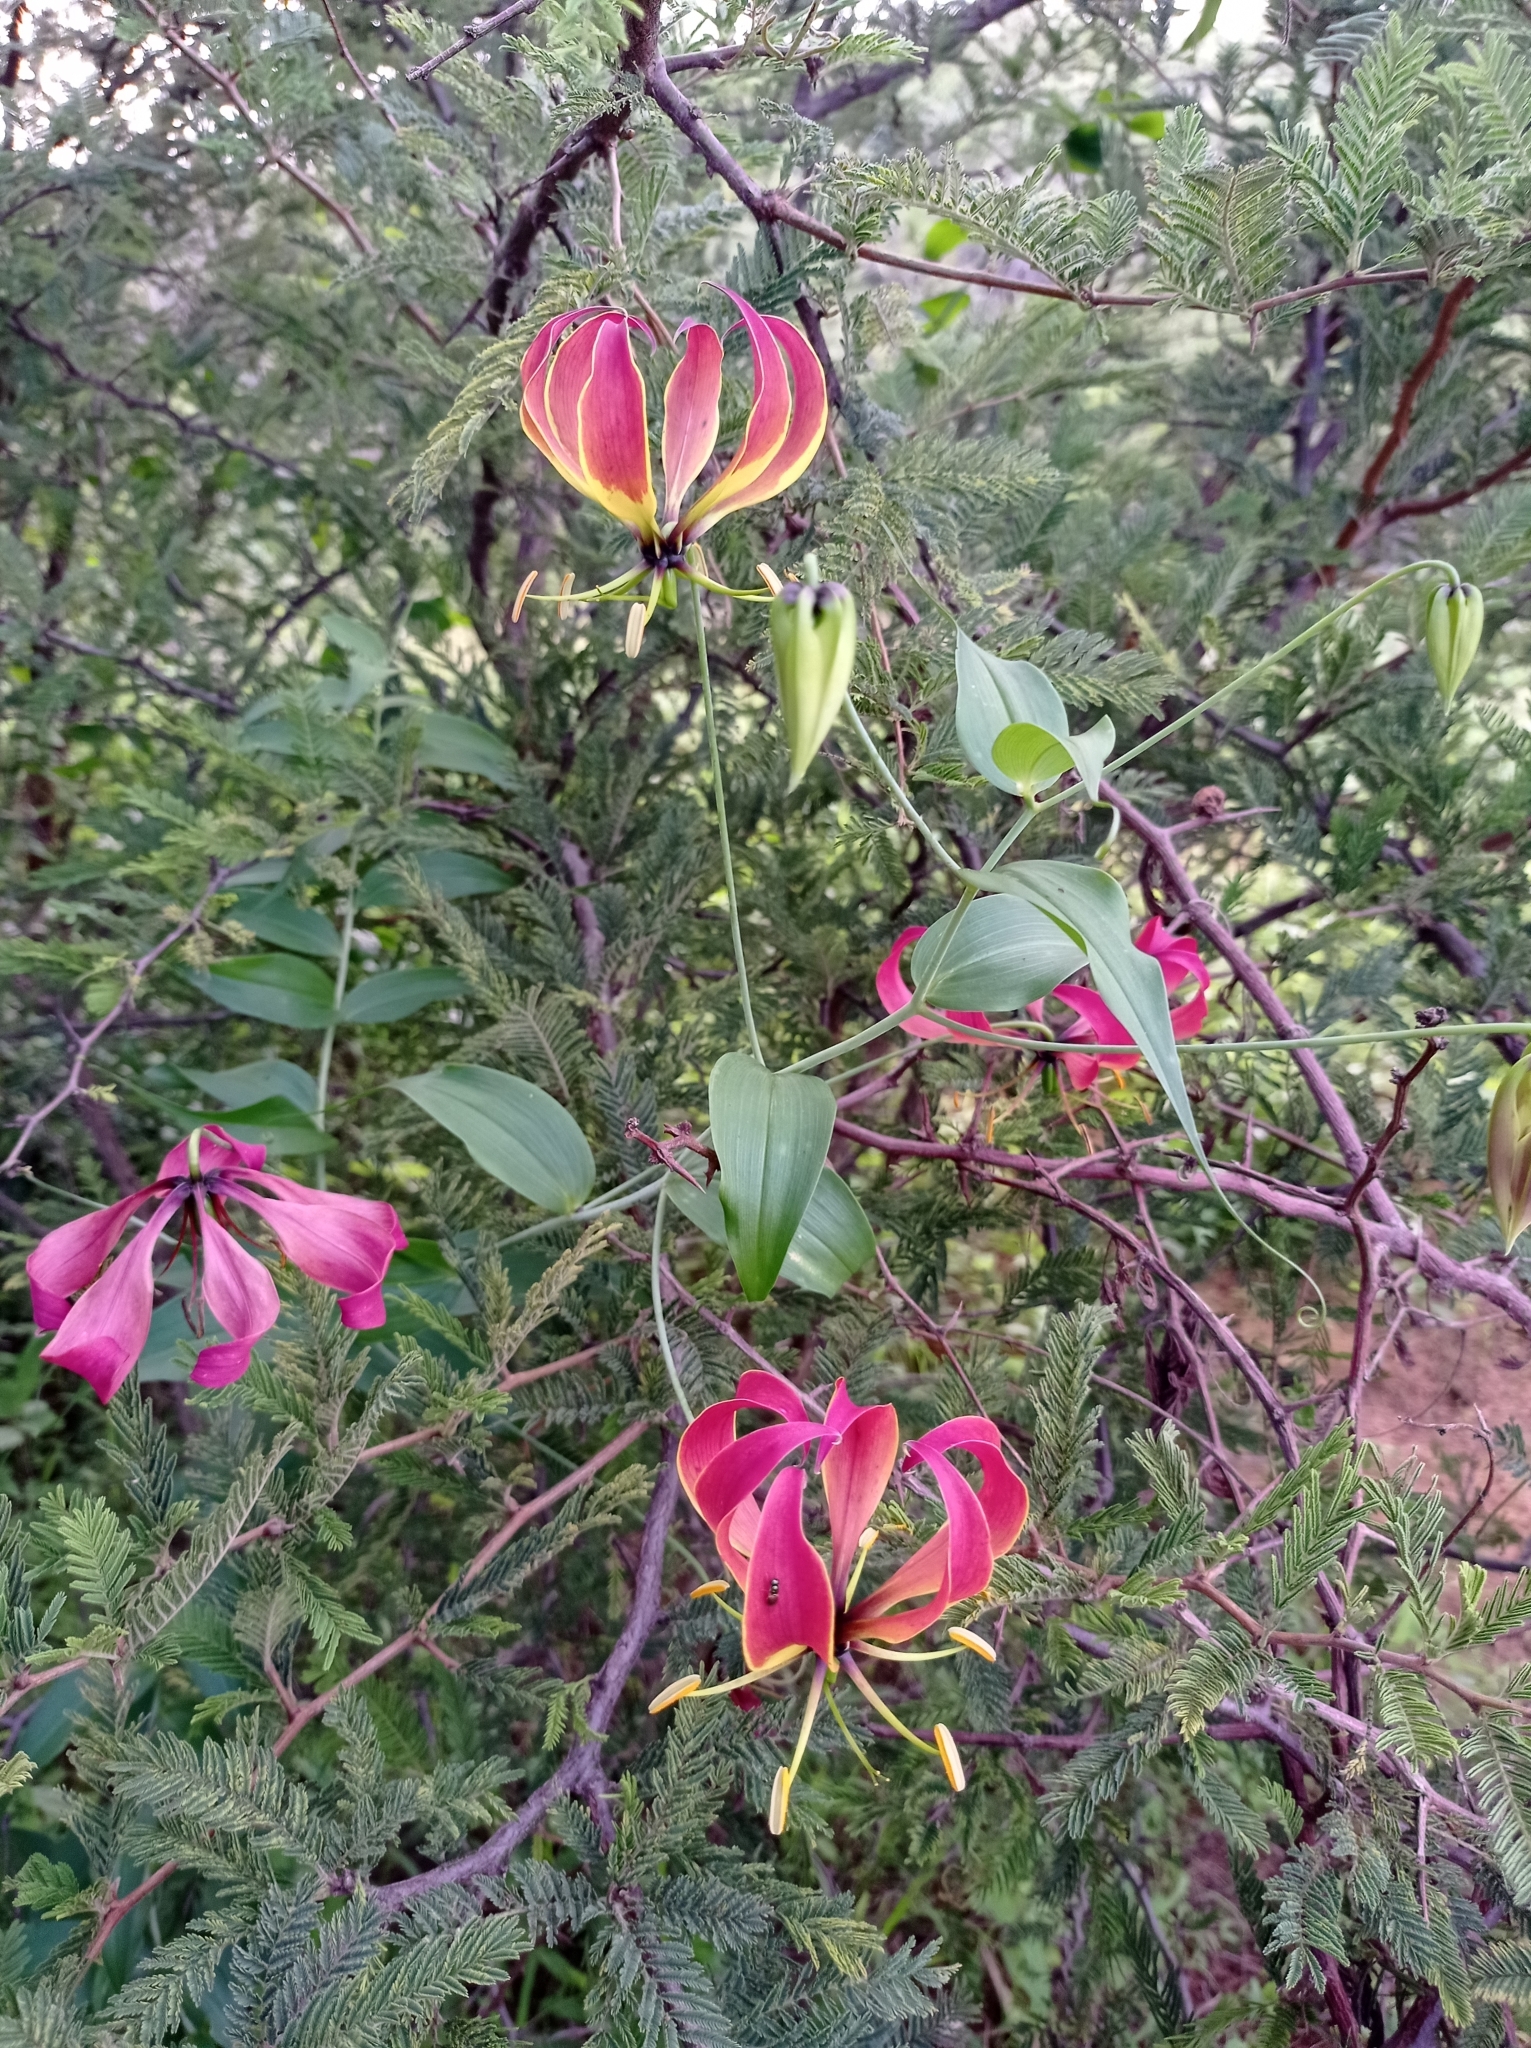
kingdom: Plantae
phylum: Tracheophyta
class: Liliopsida
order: Liliales
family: Colchicaceae
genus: Gloriosa
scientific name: Gloriosa superba
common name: Flame lily
